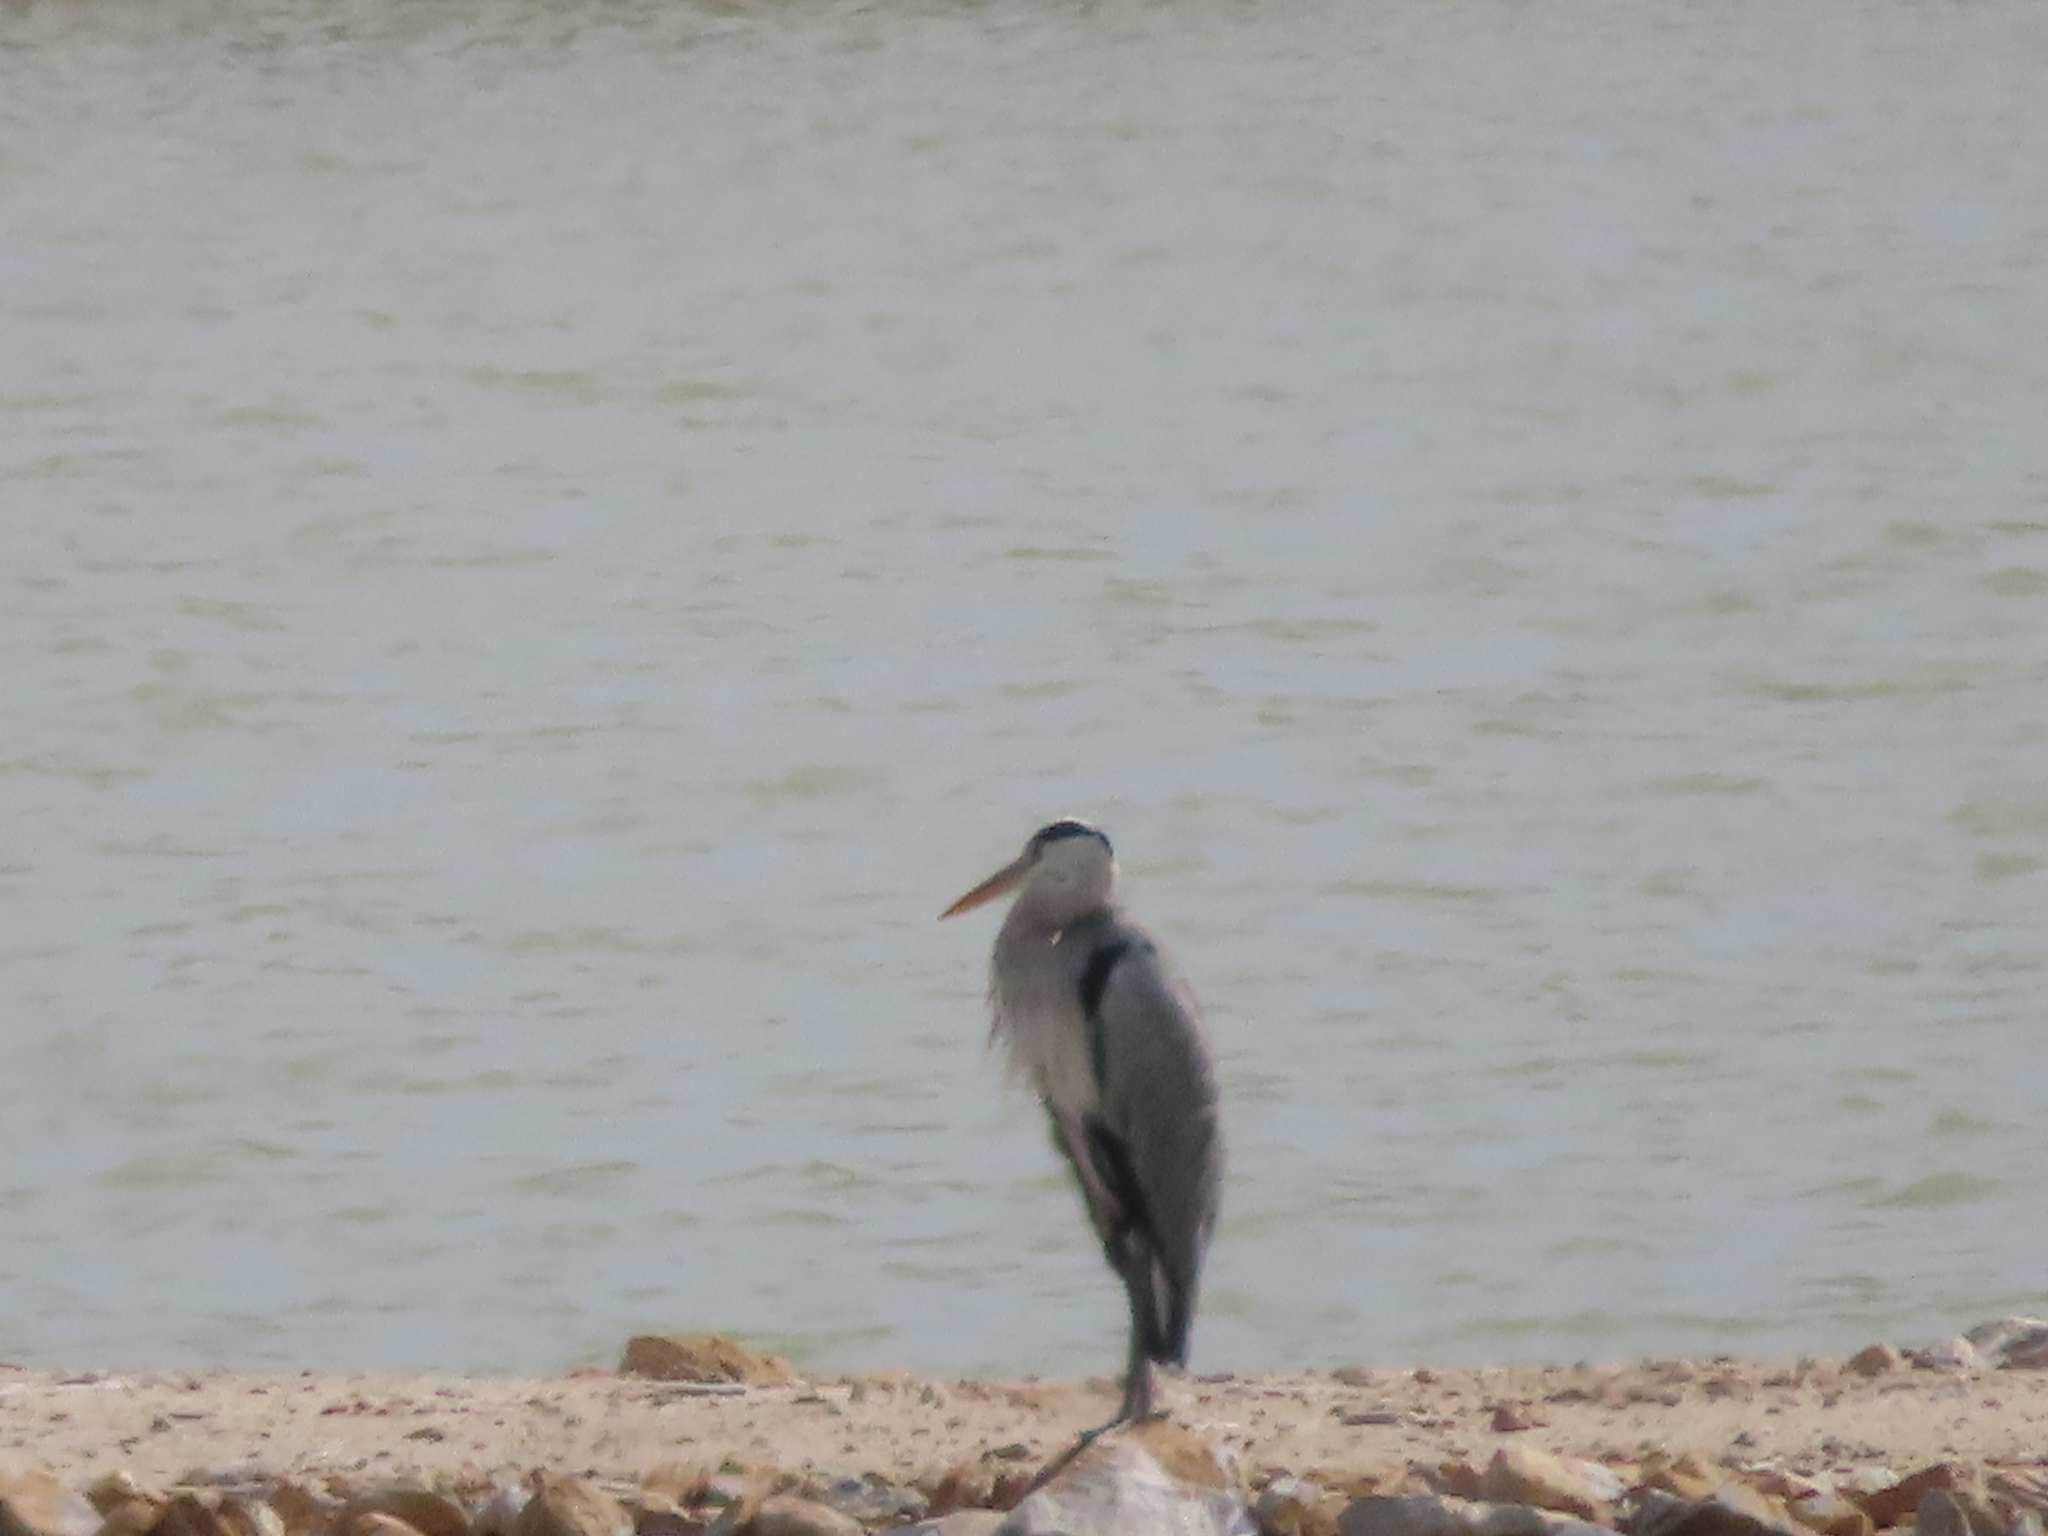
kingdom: Animalia
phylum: Chordata
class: Aves
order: Pelecaniformes
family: Ardeidae
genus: Ardea
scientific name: Ardea cinerea
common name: Grey heron
